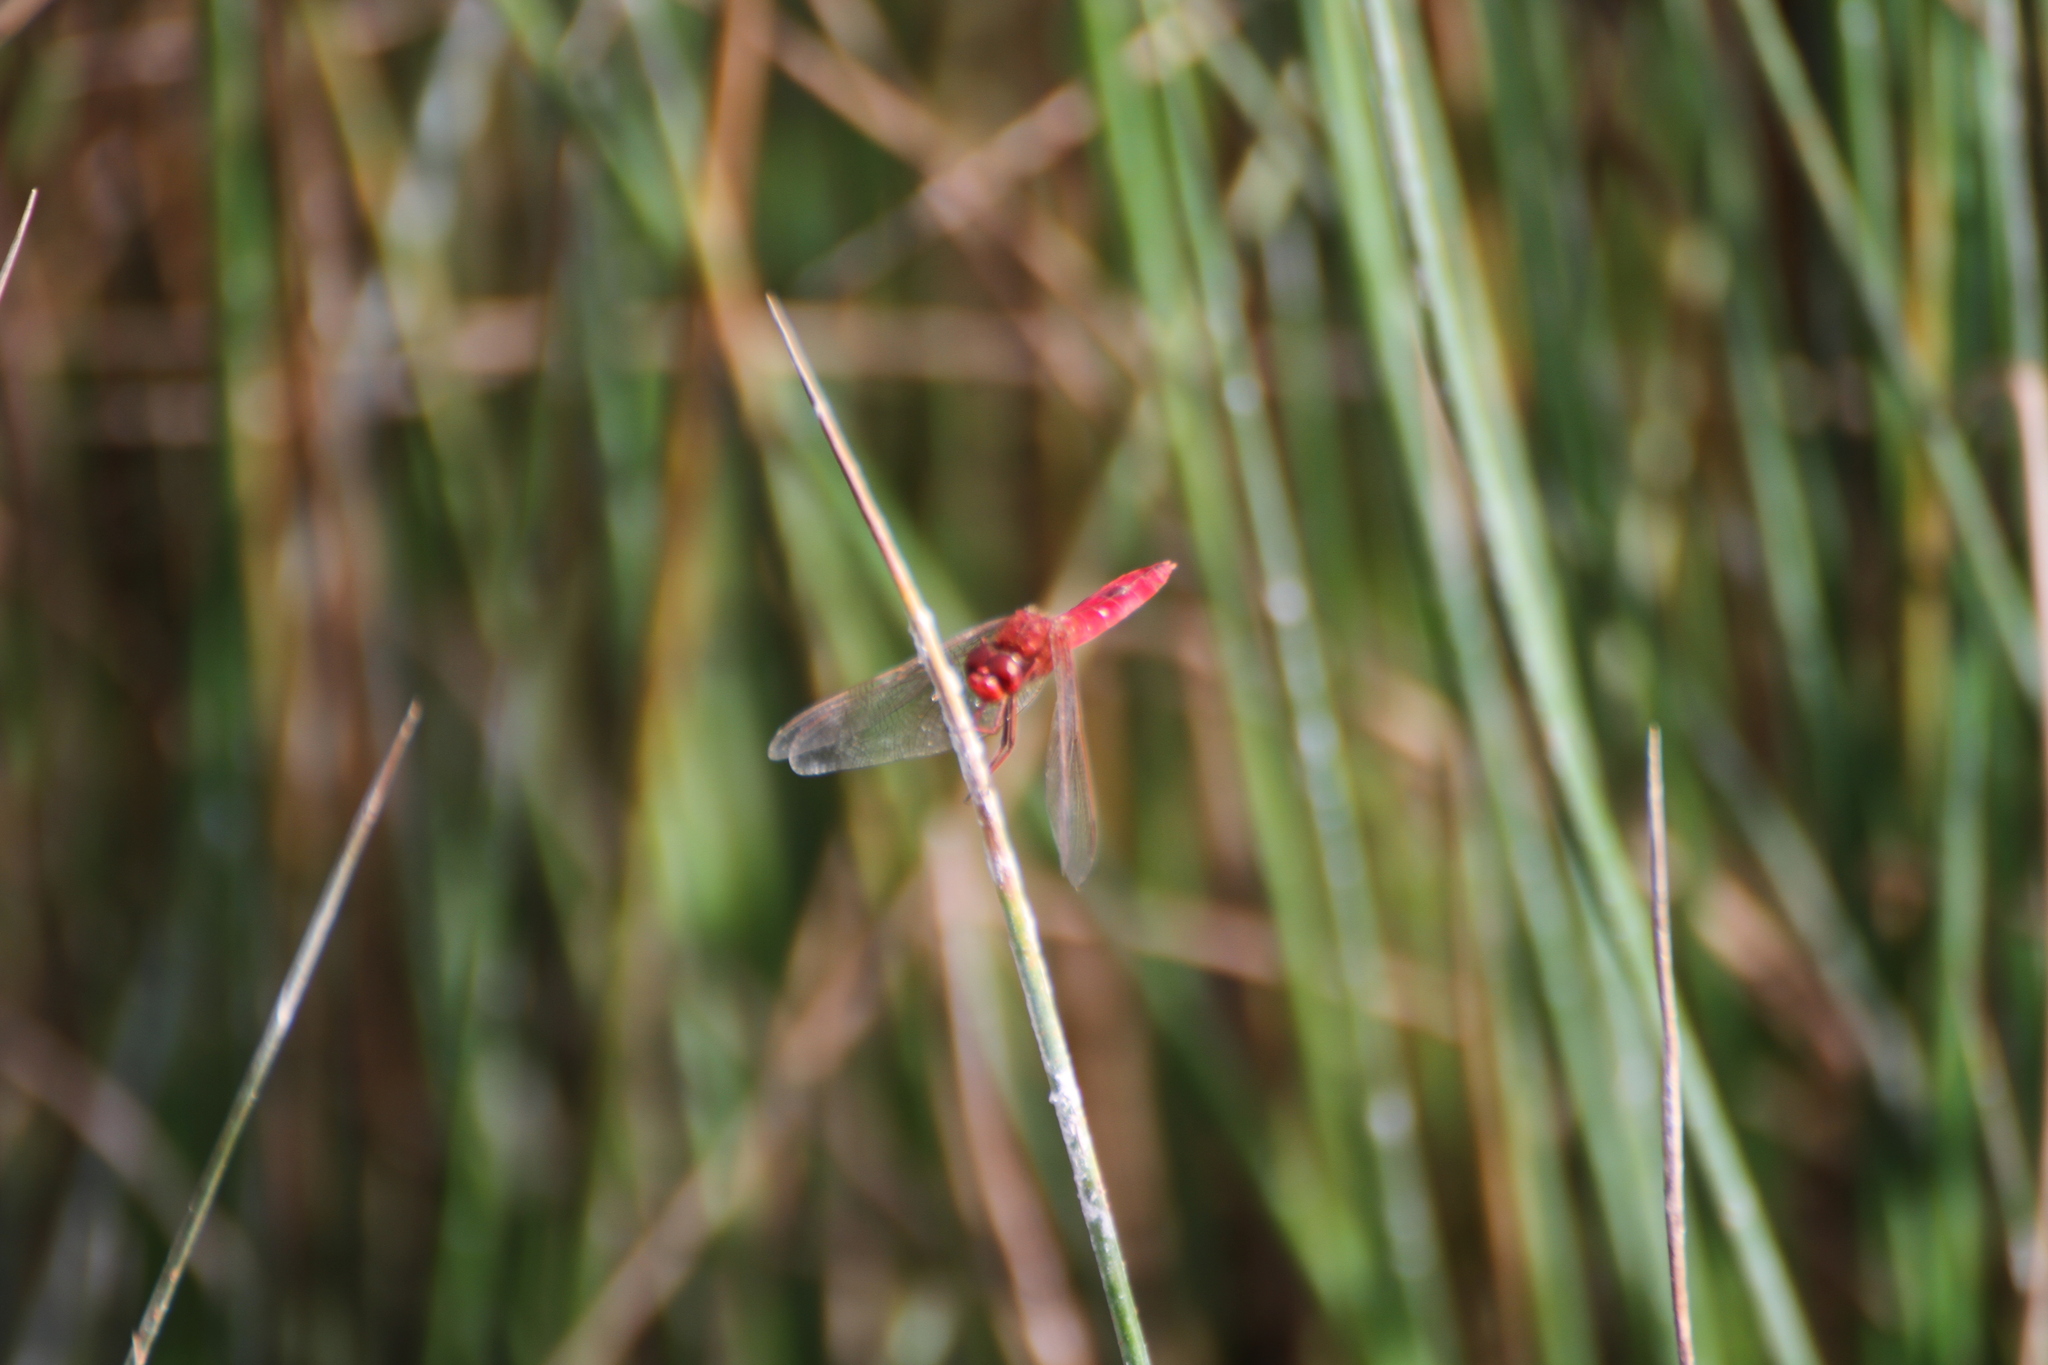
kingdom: Animalia
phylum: Arthropoda
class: Insecta
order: Odonata
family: Libellulidae
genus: Crocothemis
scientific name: Crocothemis erythraea
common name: Scarlet dragonfly
